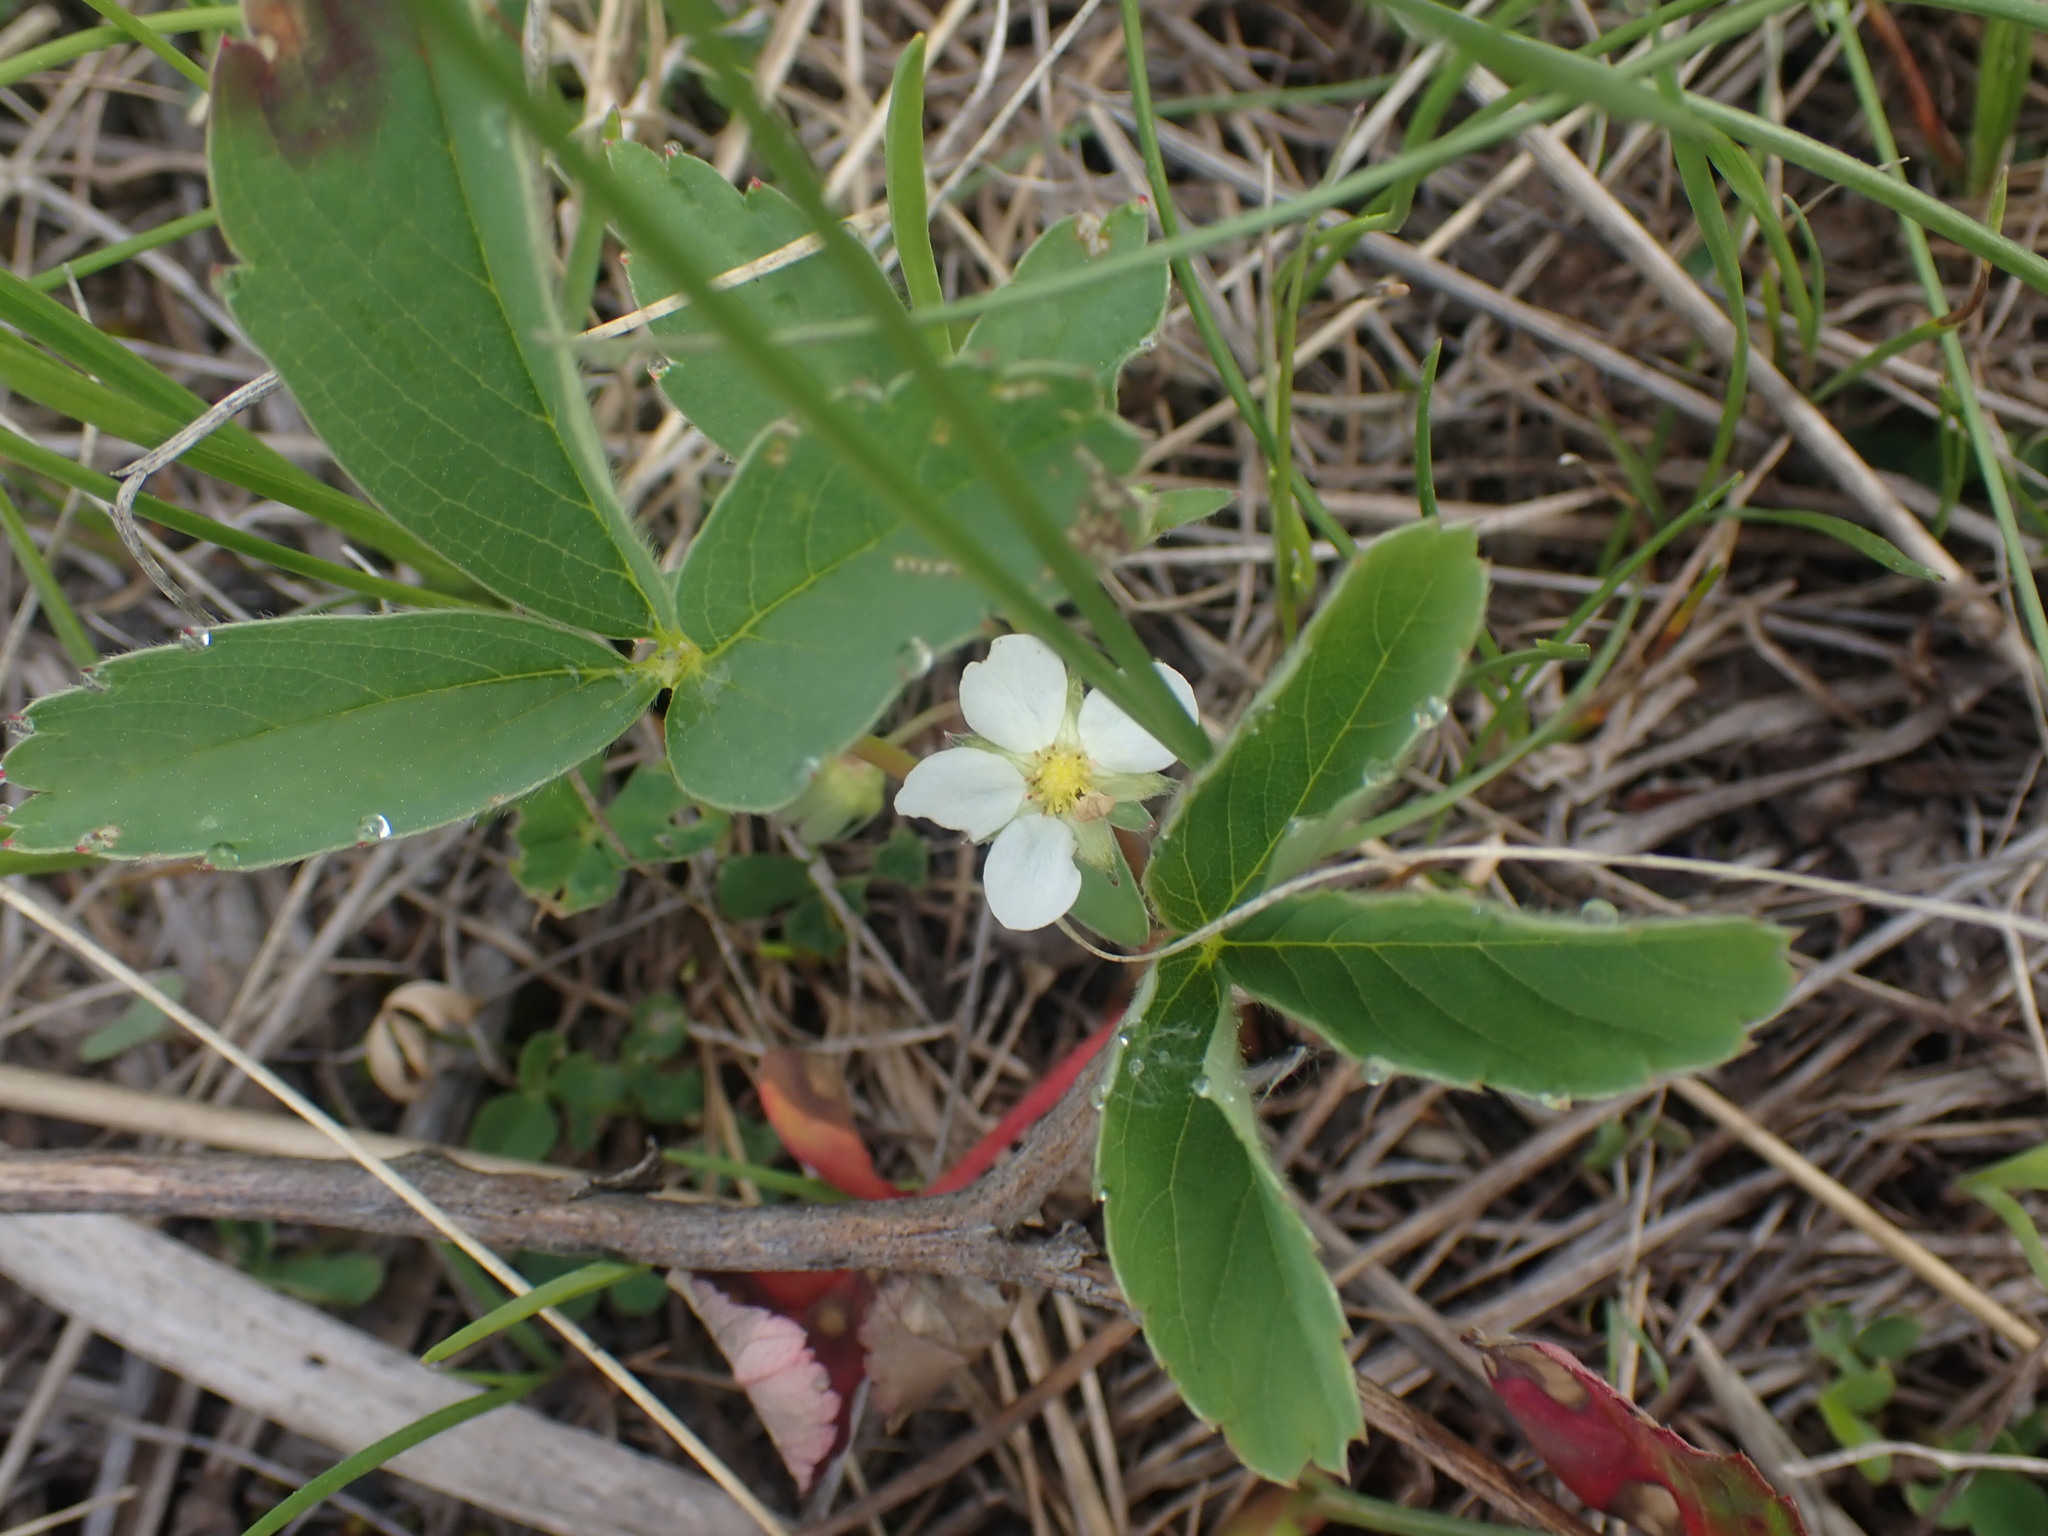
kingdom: Plantae
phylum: Tracheophyta
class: Magnoliopsida
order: Rosales
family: Rosaceae
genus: Fragaria
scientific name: Fragaria virginiana
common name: Thickleaved wild strawberry
